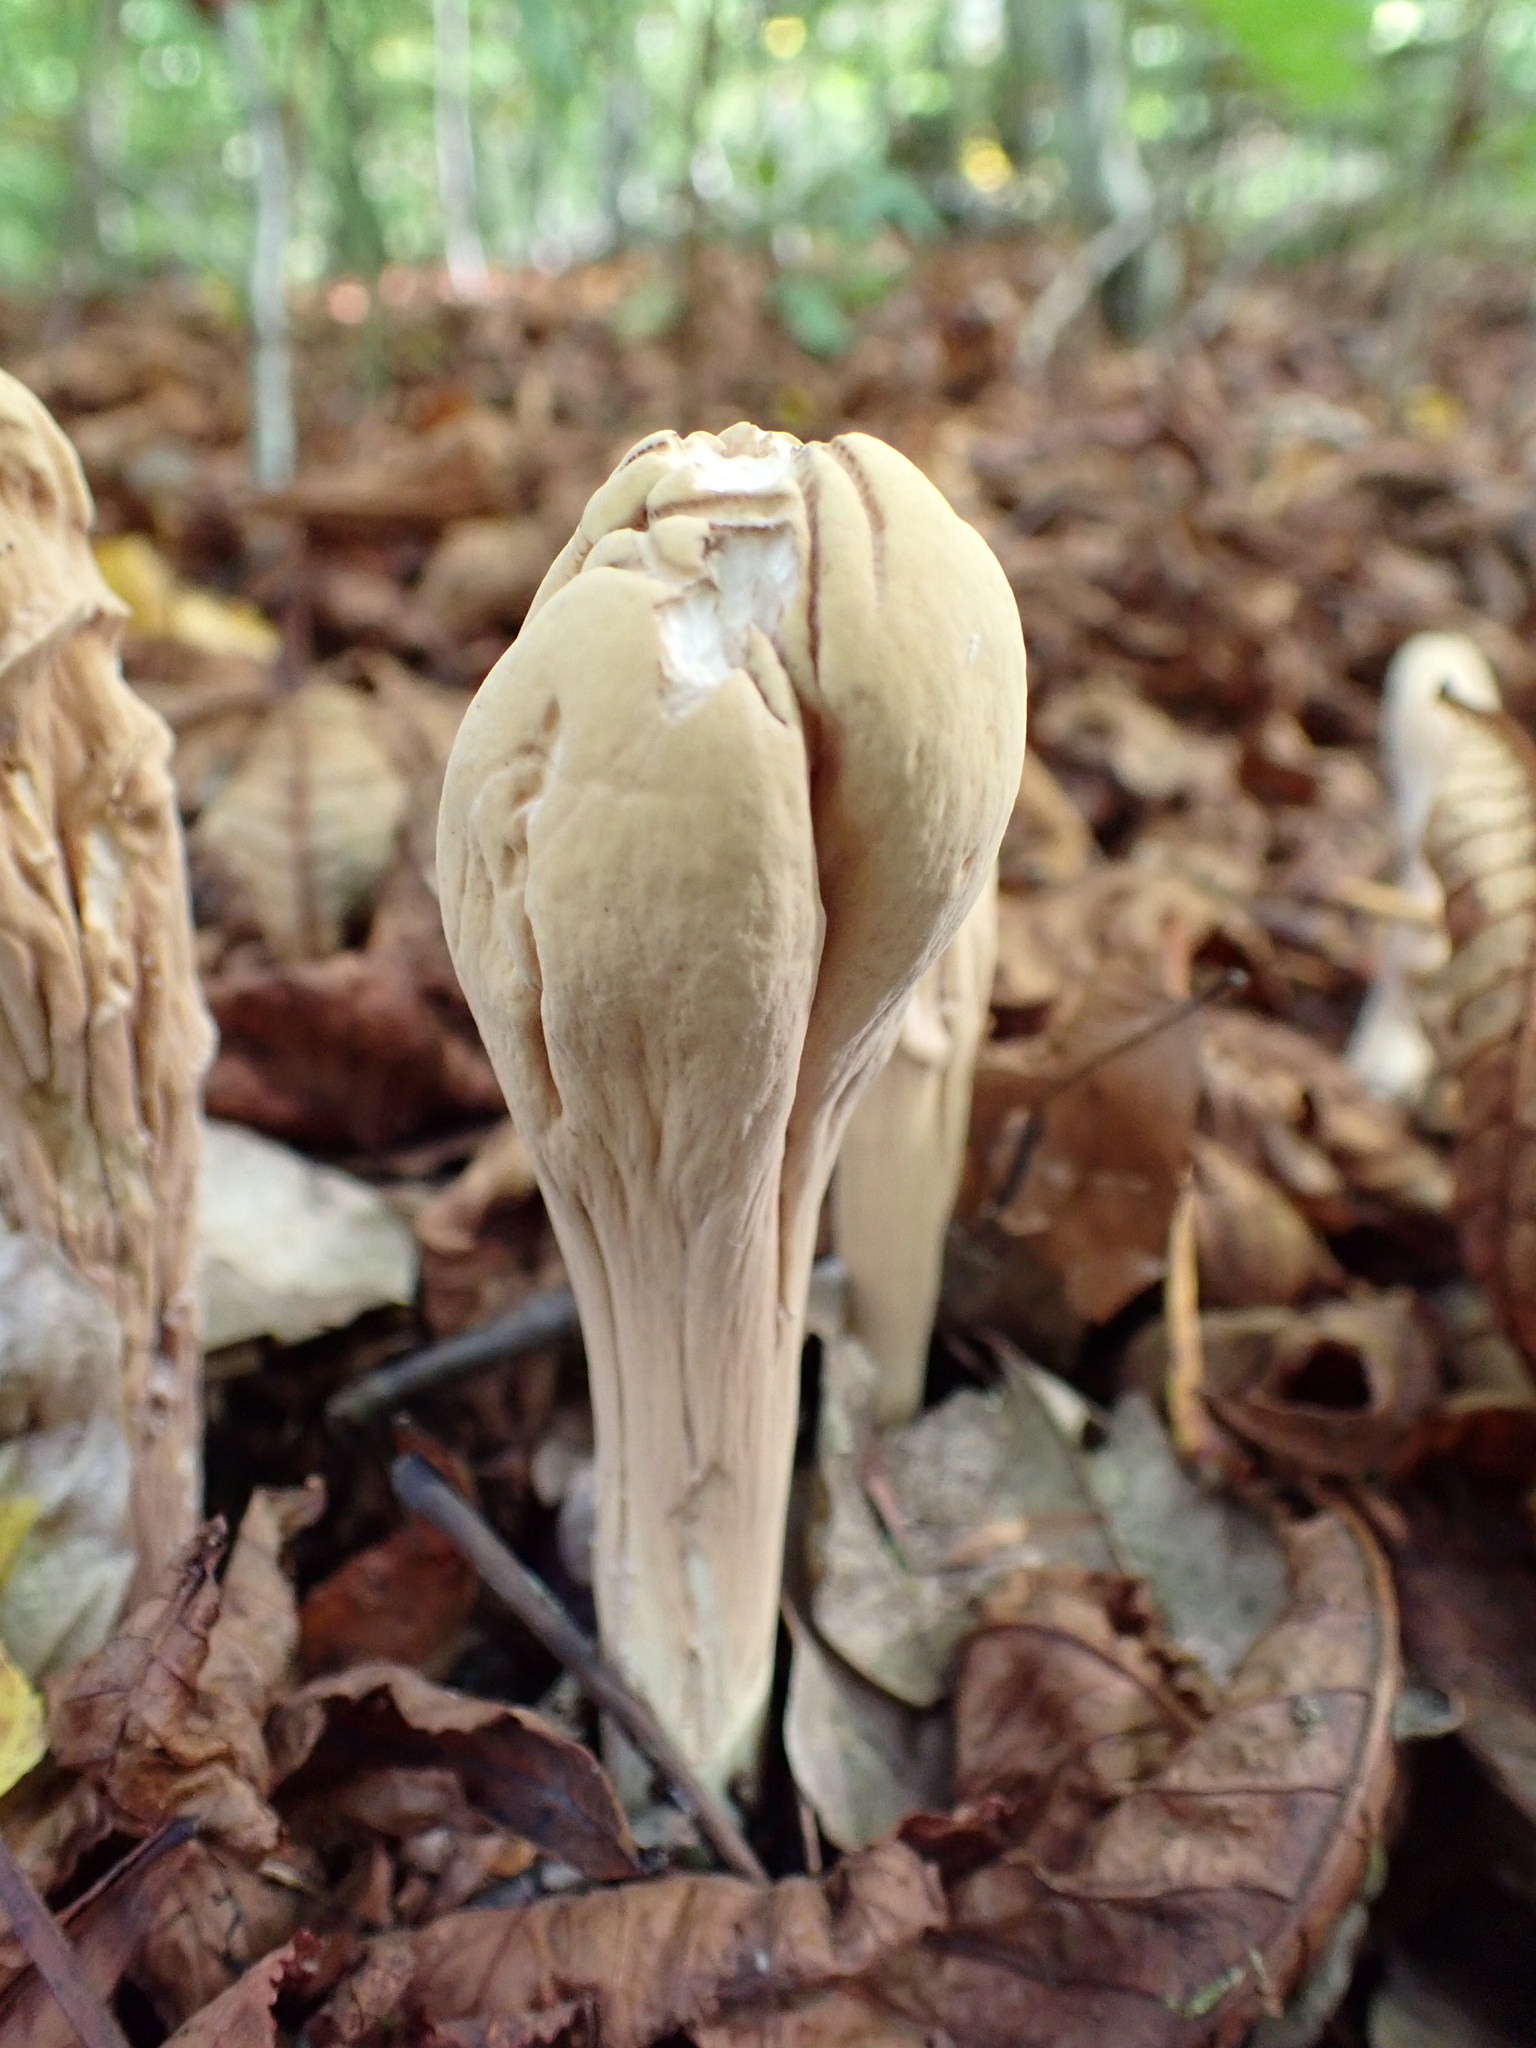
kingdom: Fungi
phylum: Basidiomycota
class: Agaricomycetes
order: Gomphales
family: Clavariadelphaceae
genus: Clavariadelphus
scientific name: Clavariadelphus pistillaris
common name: Giant club
